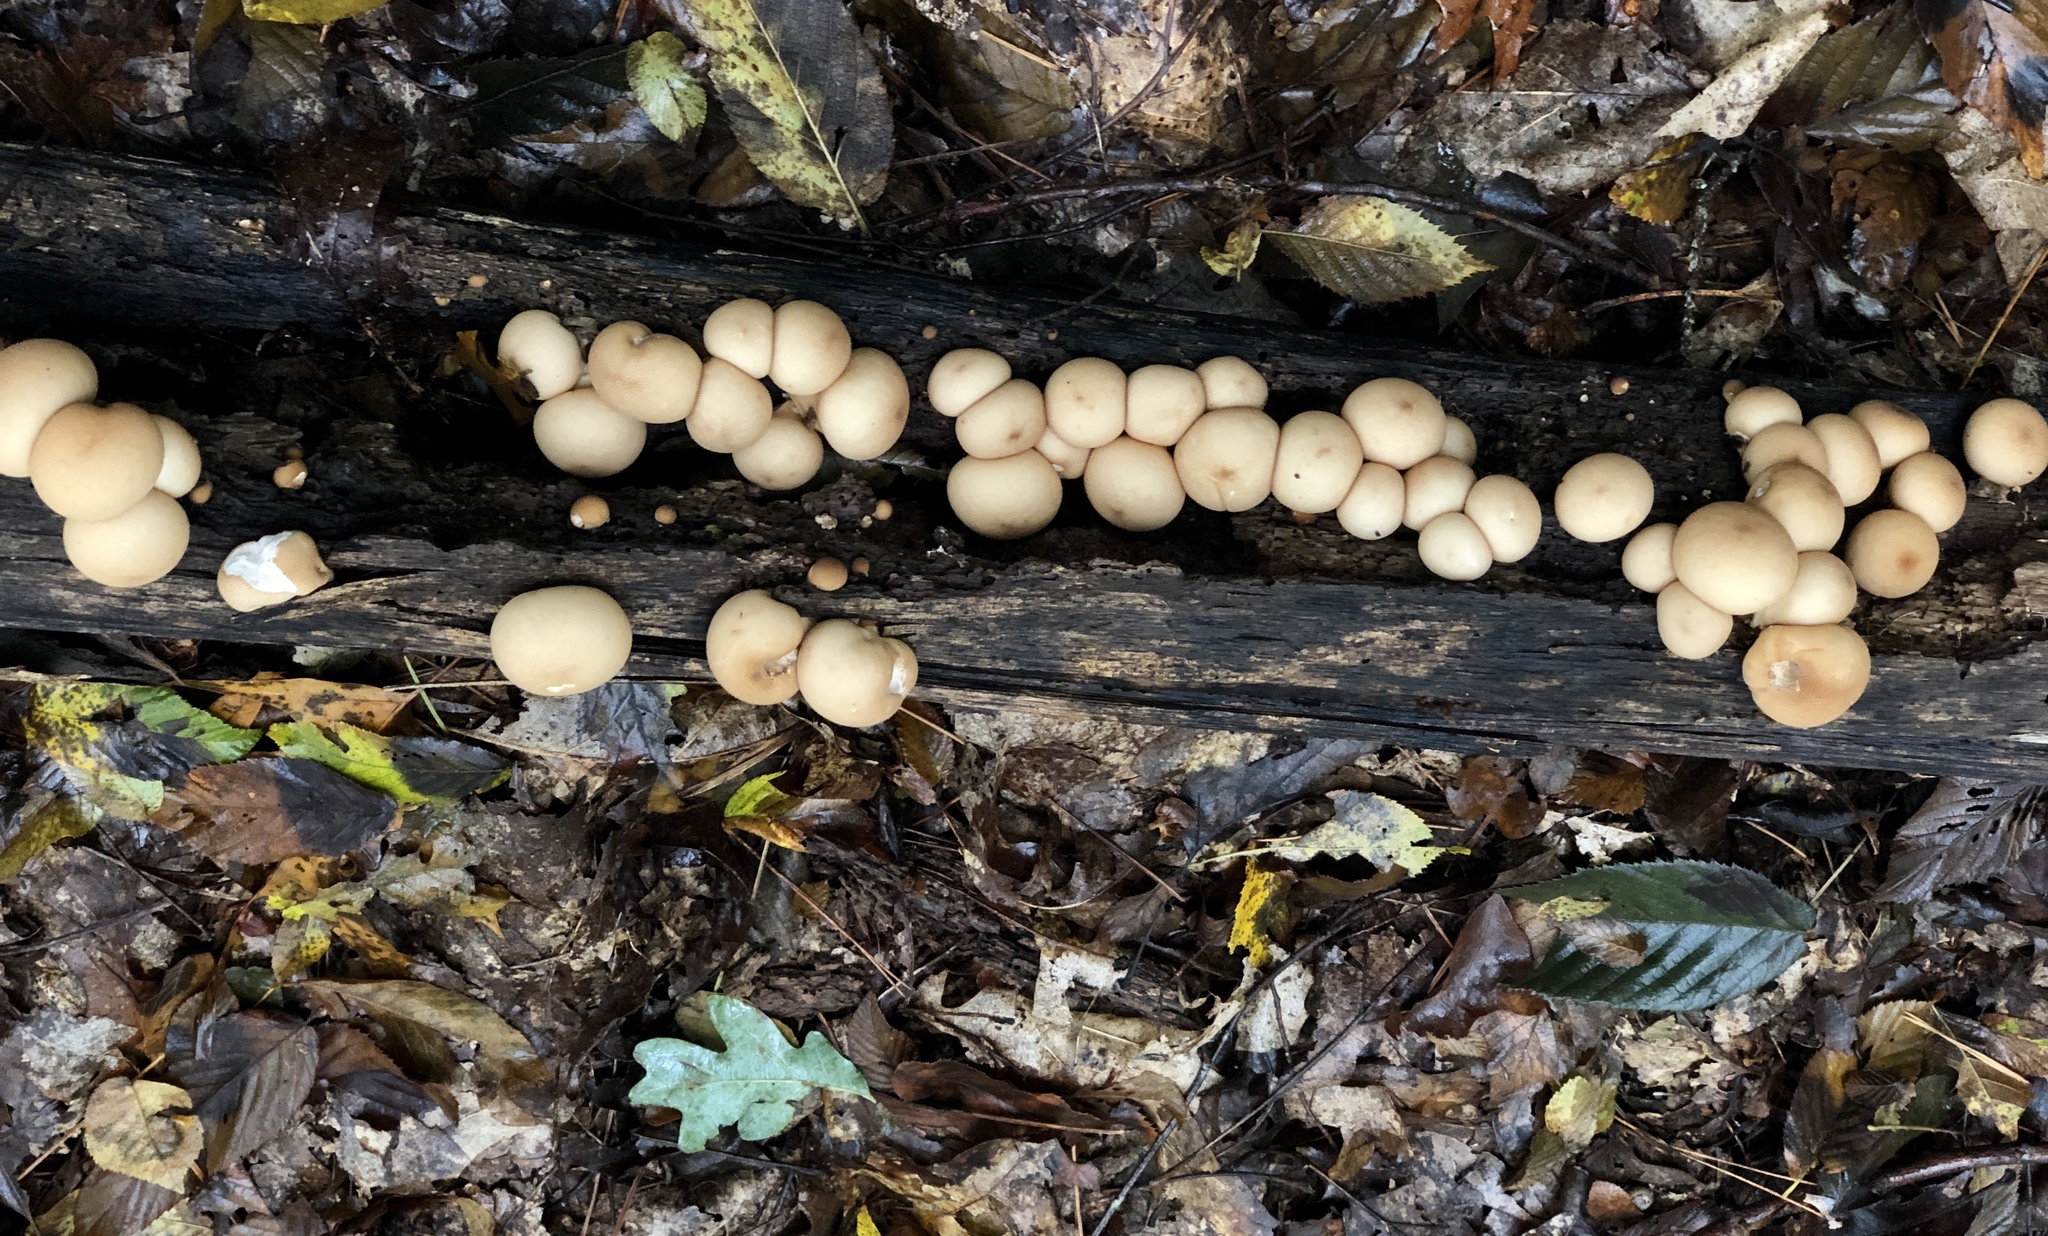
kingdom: Fungi
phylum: Basidiomycota
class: Agaricomycetes
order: Agaricales
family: Lycoperdaceae
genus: Apioperdon
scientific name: Apioperdon pyriforme
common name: Pear-shaped puffball
